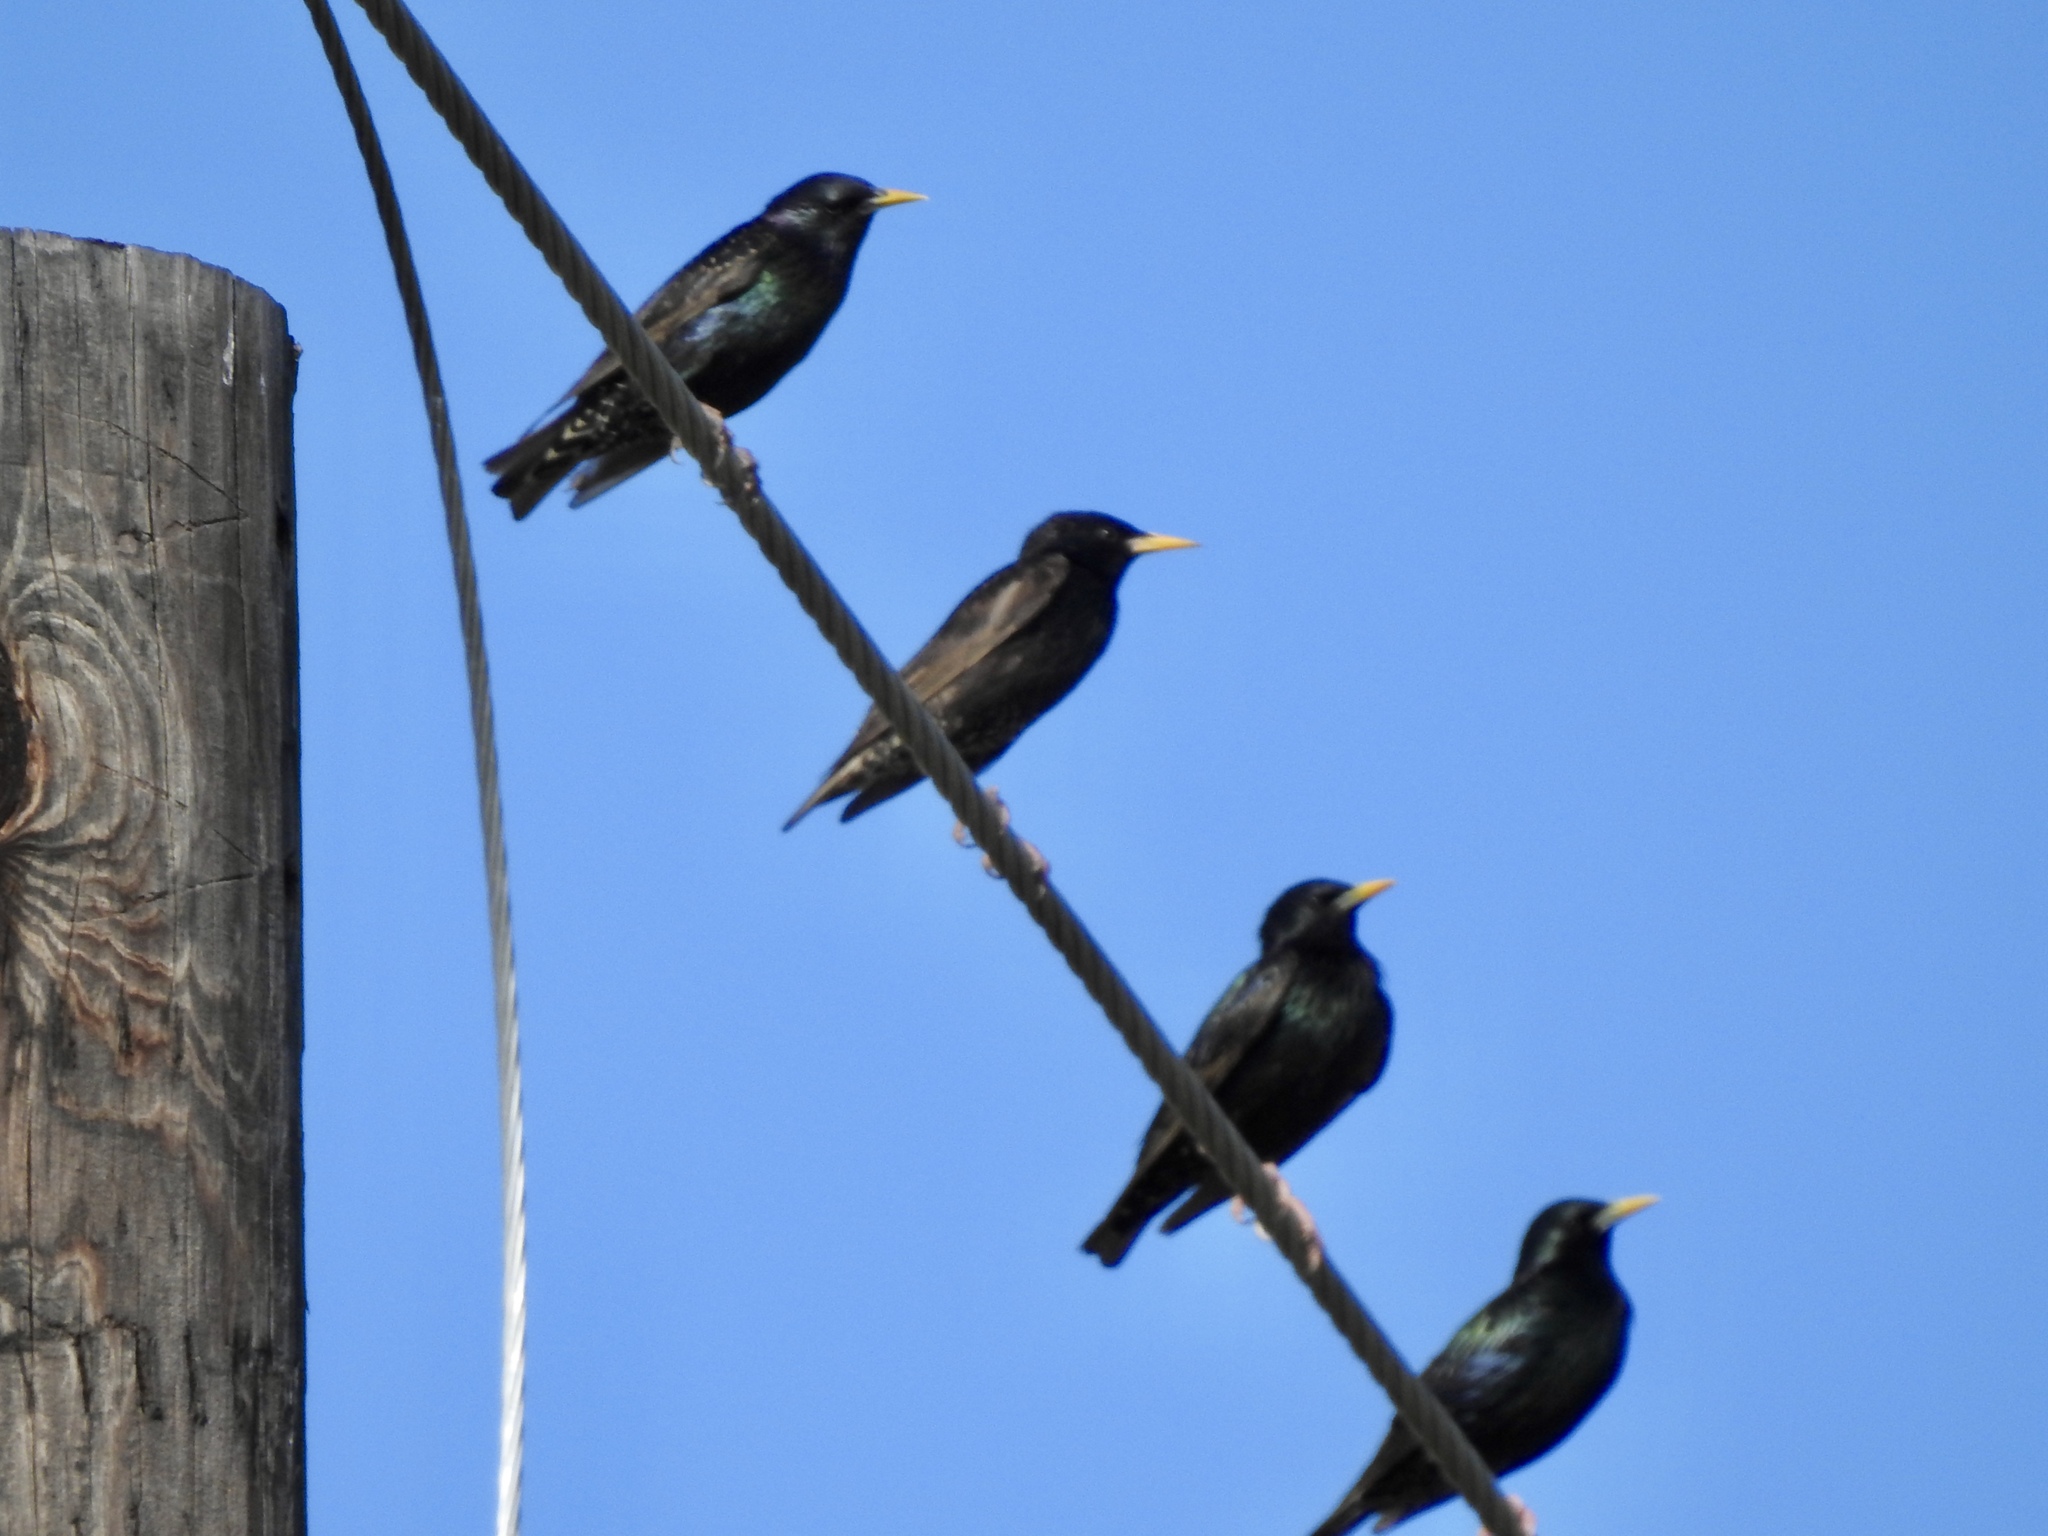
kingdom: Animalia
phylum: Chordata
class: Aves
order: Passeriformes
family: Sturnidae
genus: Sturnus
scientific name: Sturnus vulgaris
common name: Common starling
